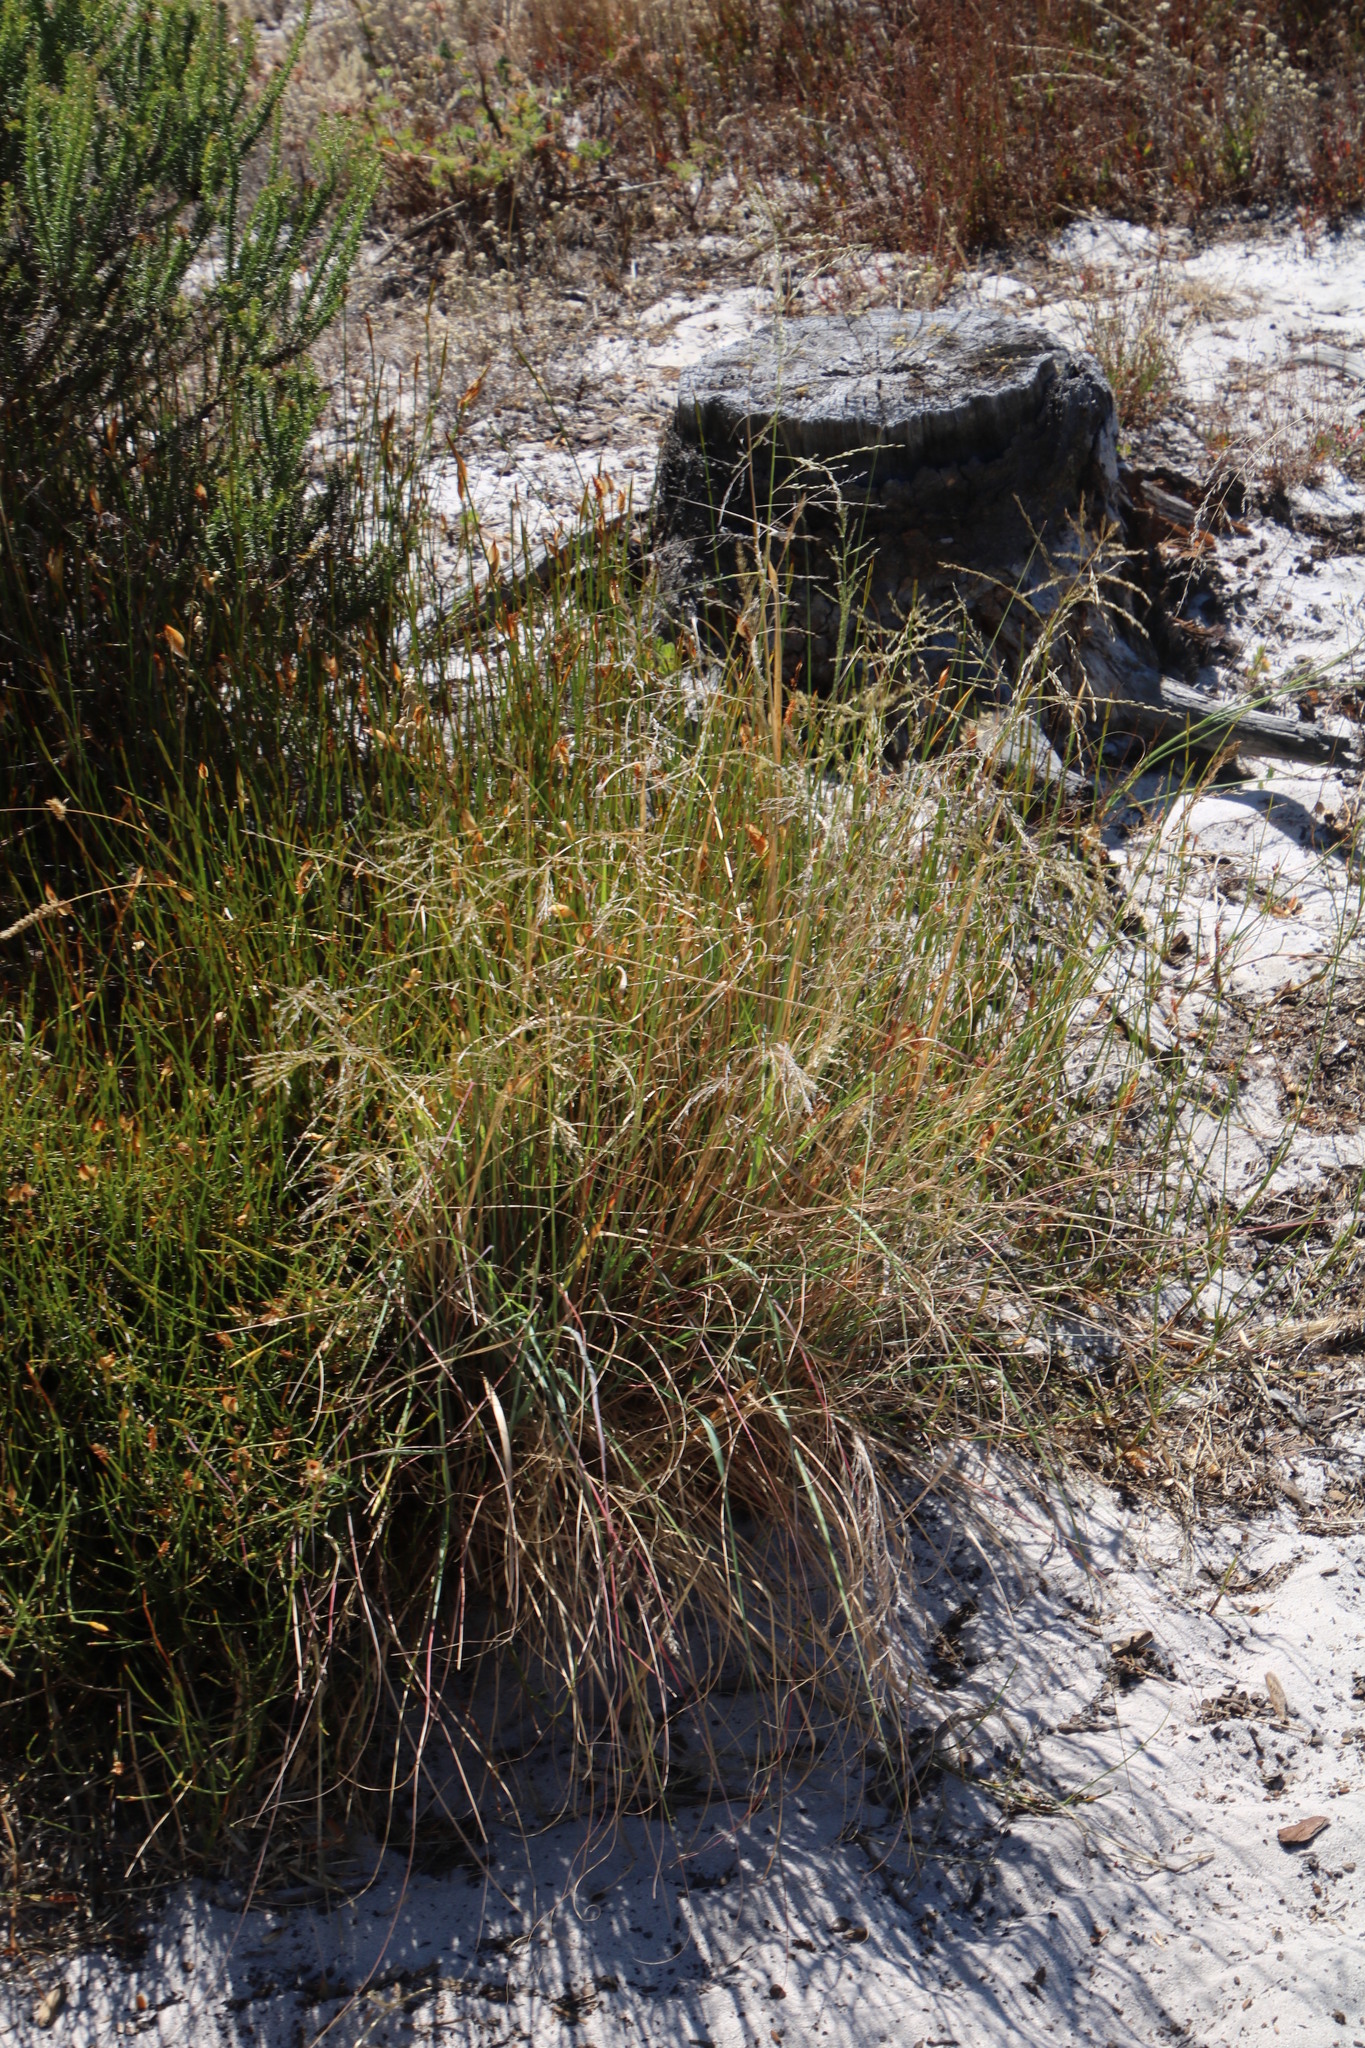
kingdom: Plantae
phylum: Tracheophyta
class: Liliopsida
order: Poales
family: Poaceae
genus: Eragrostis
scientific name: Eragrostis curvula
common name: African love-grass
